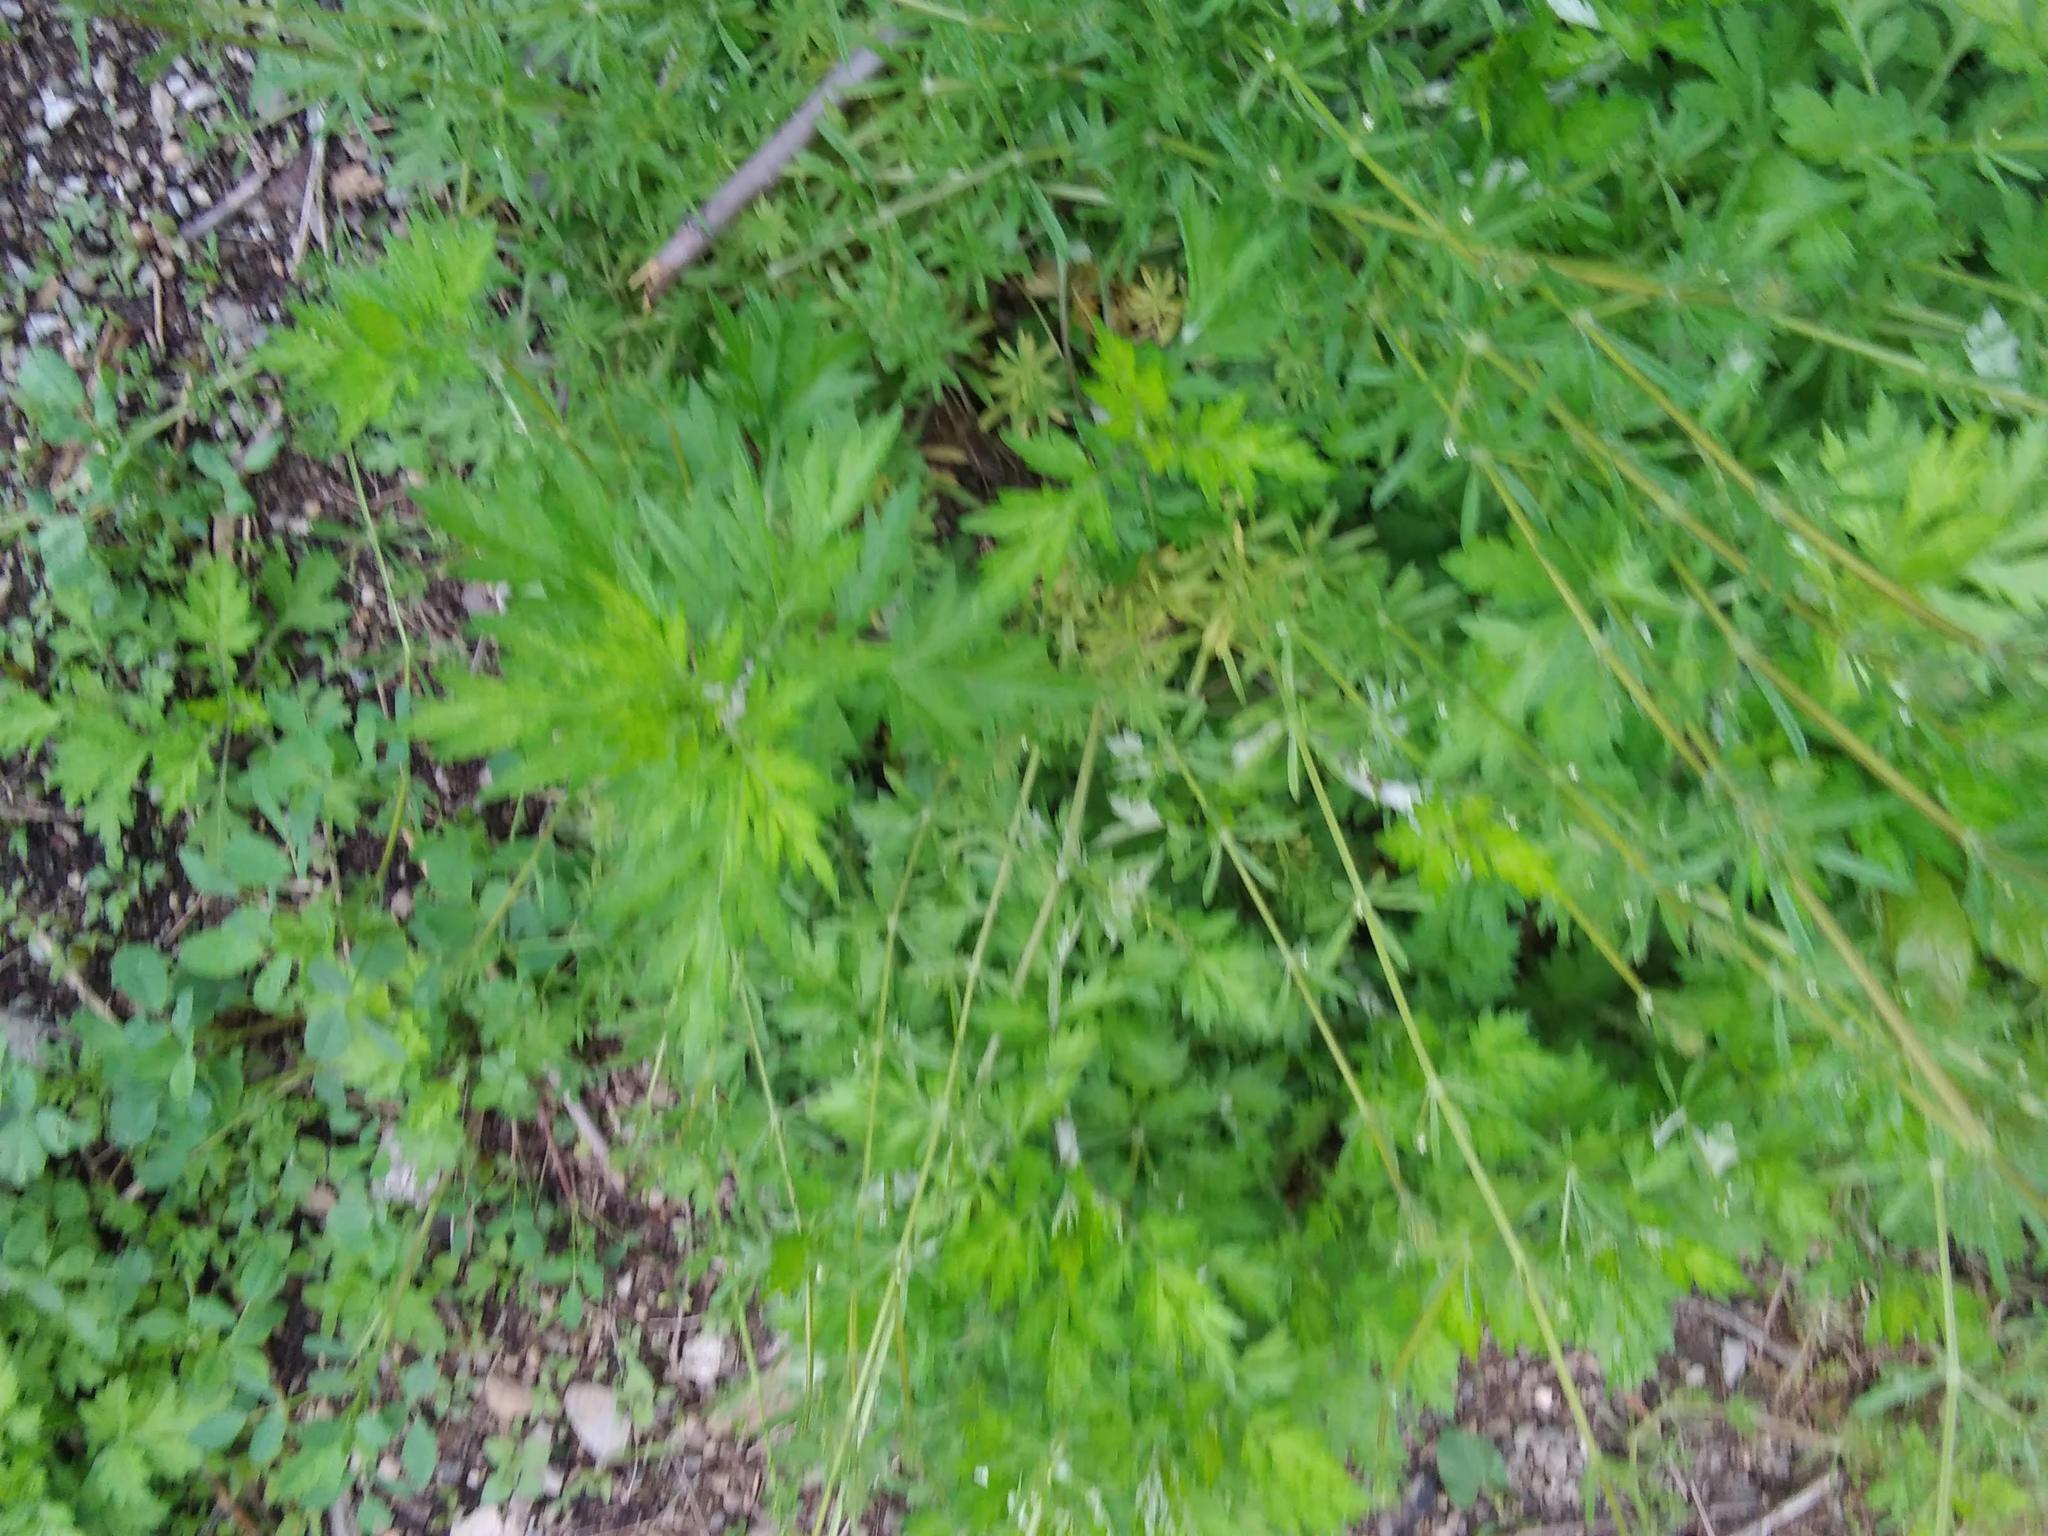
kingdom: Plantae
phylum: Tracheophyta
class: Magnoliopsida
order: Asterales
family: Asteraceae
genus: Artemisia
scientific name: Artemisia vulgaris
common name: Mugwort
